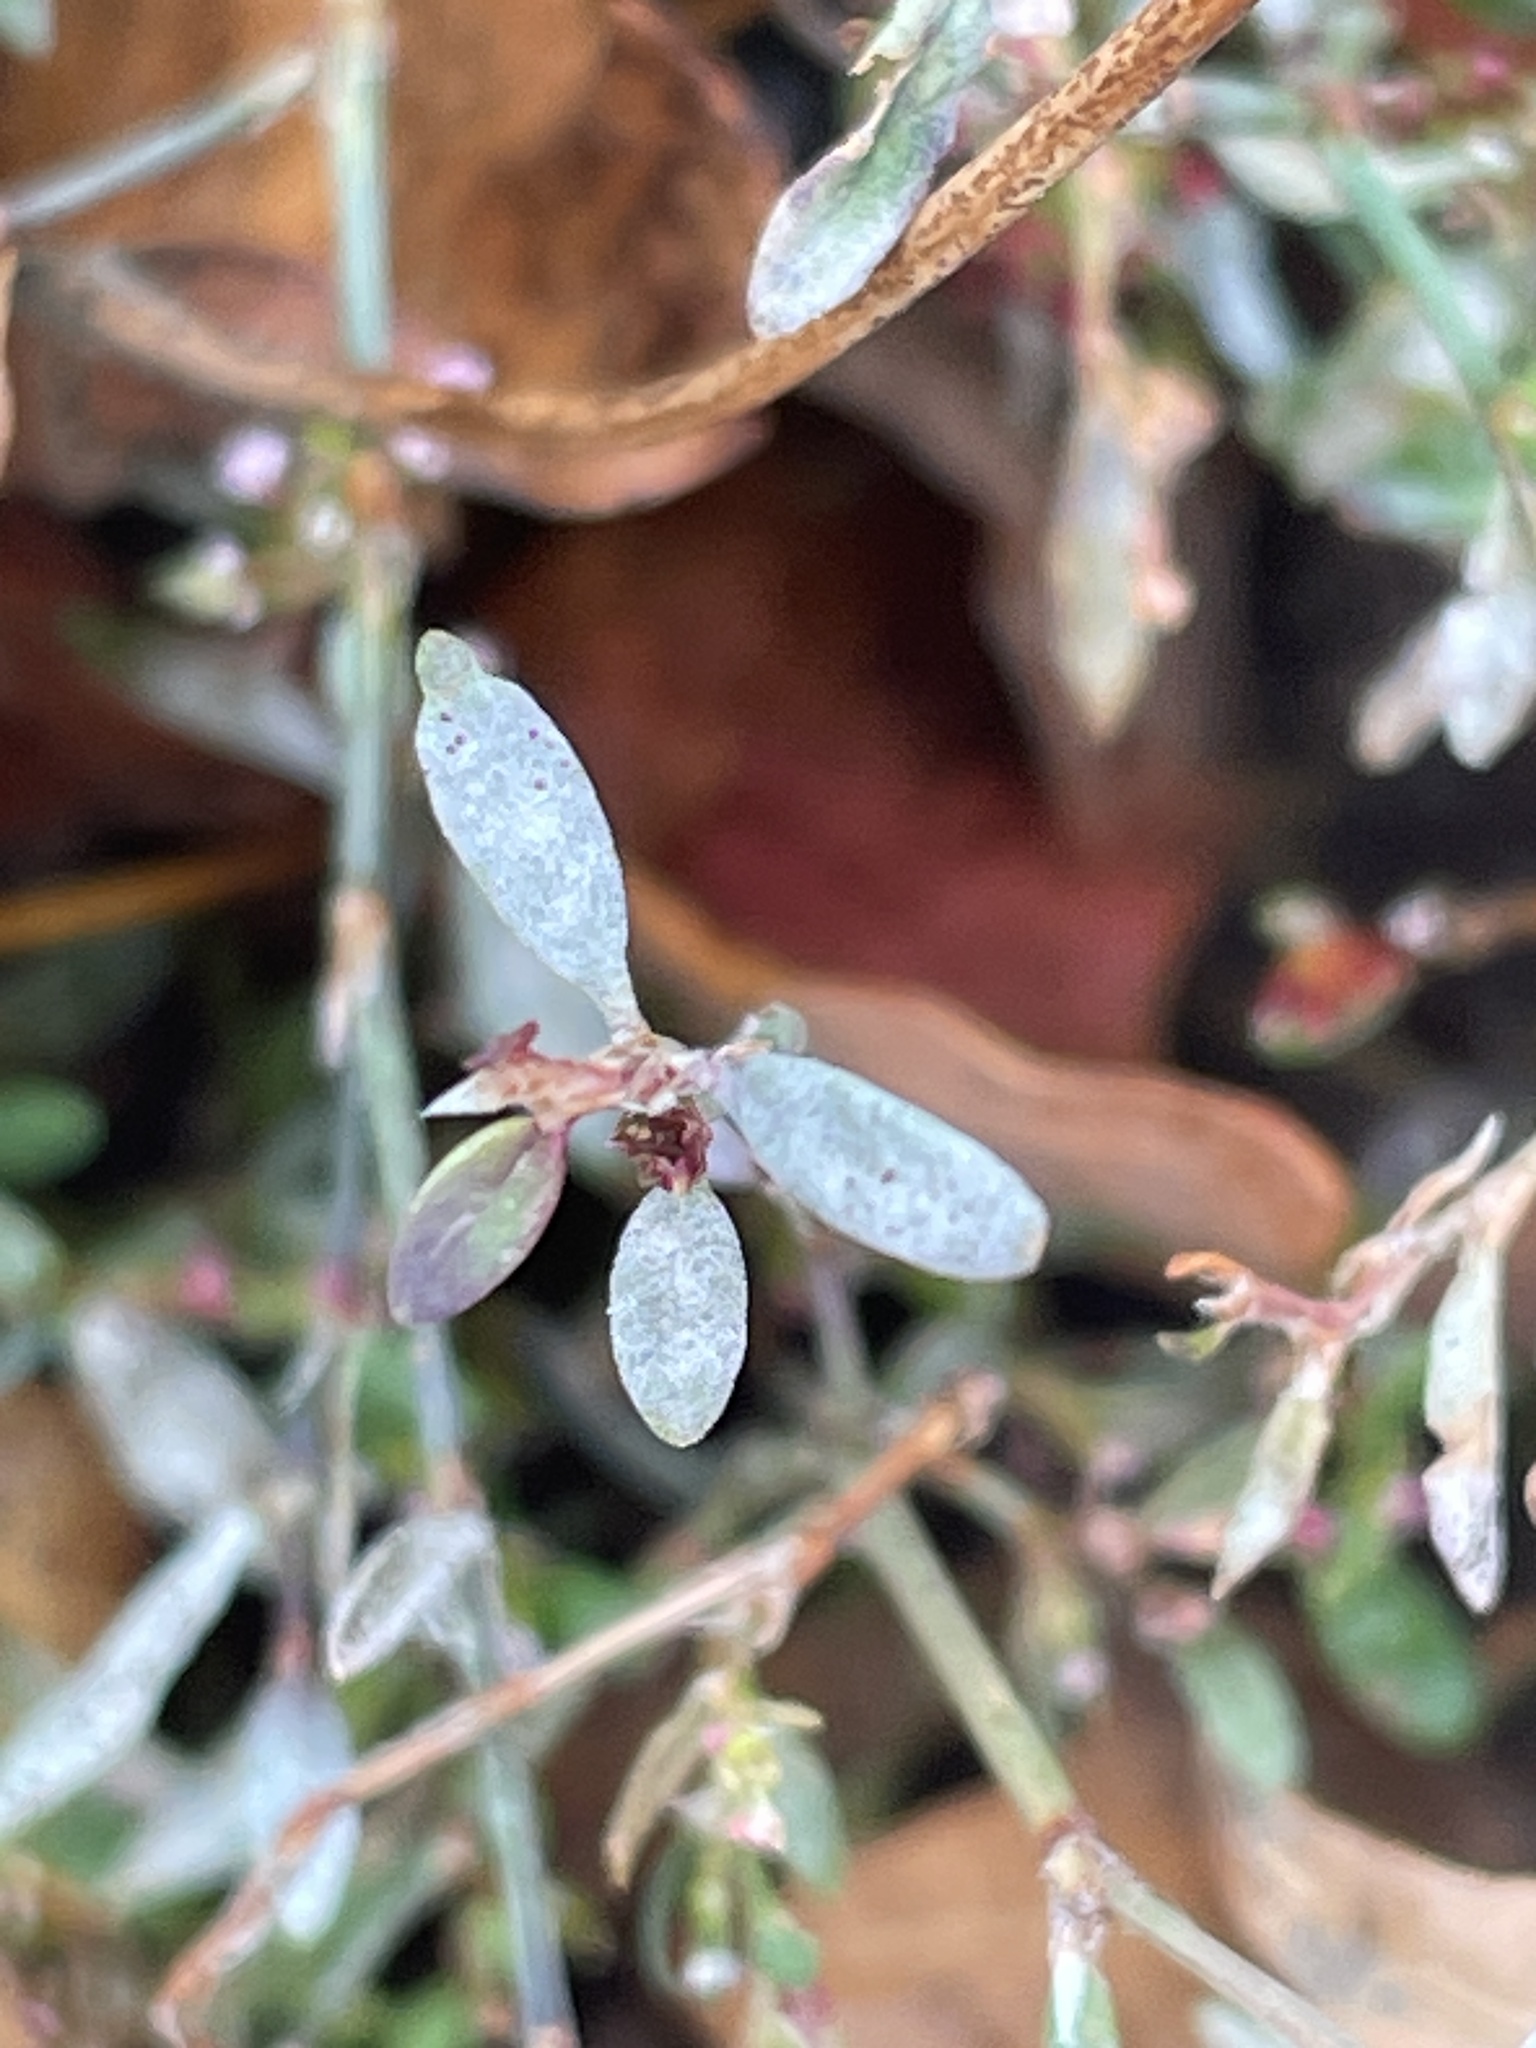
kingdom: Fungi
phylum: Ascomycota
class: Leotiomycetes
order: Helotiales
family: Erysiphaceae
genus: Erysiphe
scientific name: Erysiphe polygoni
